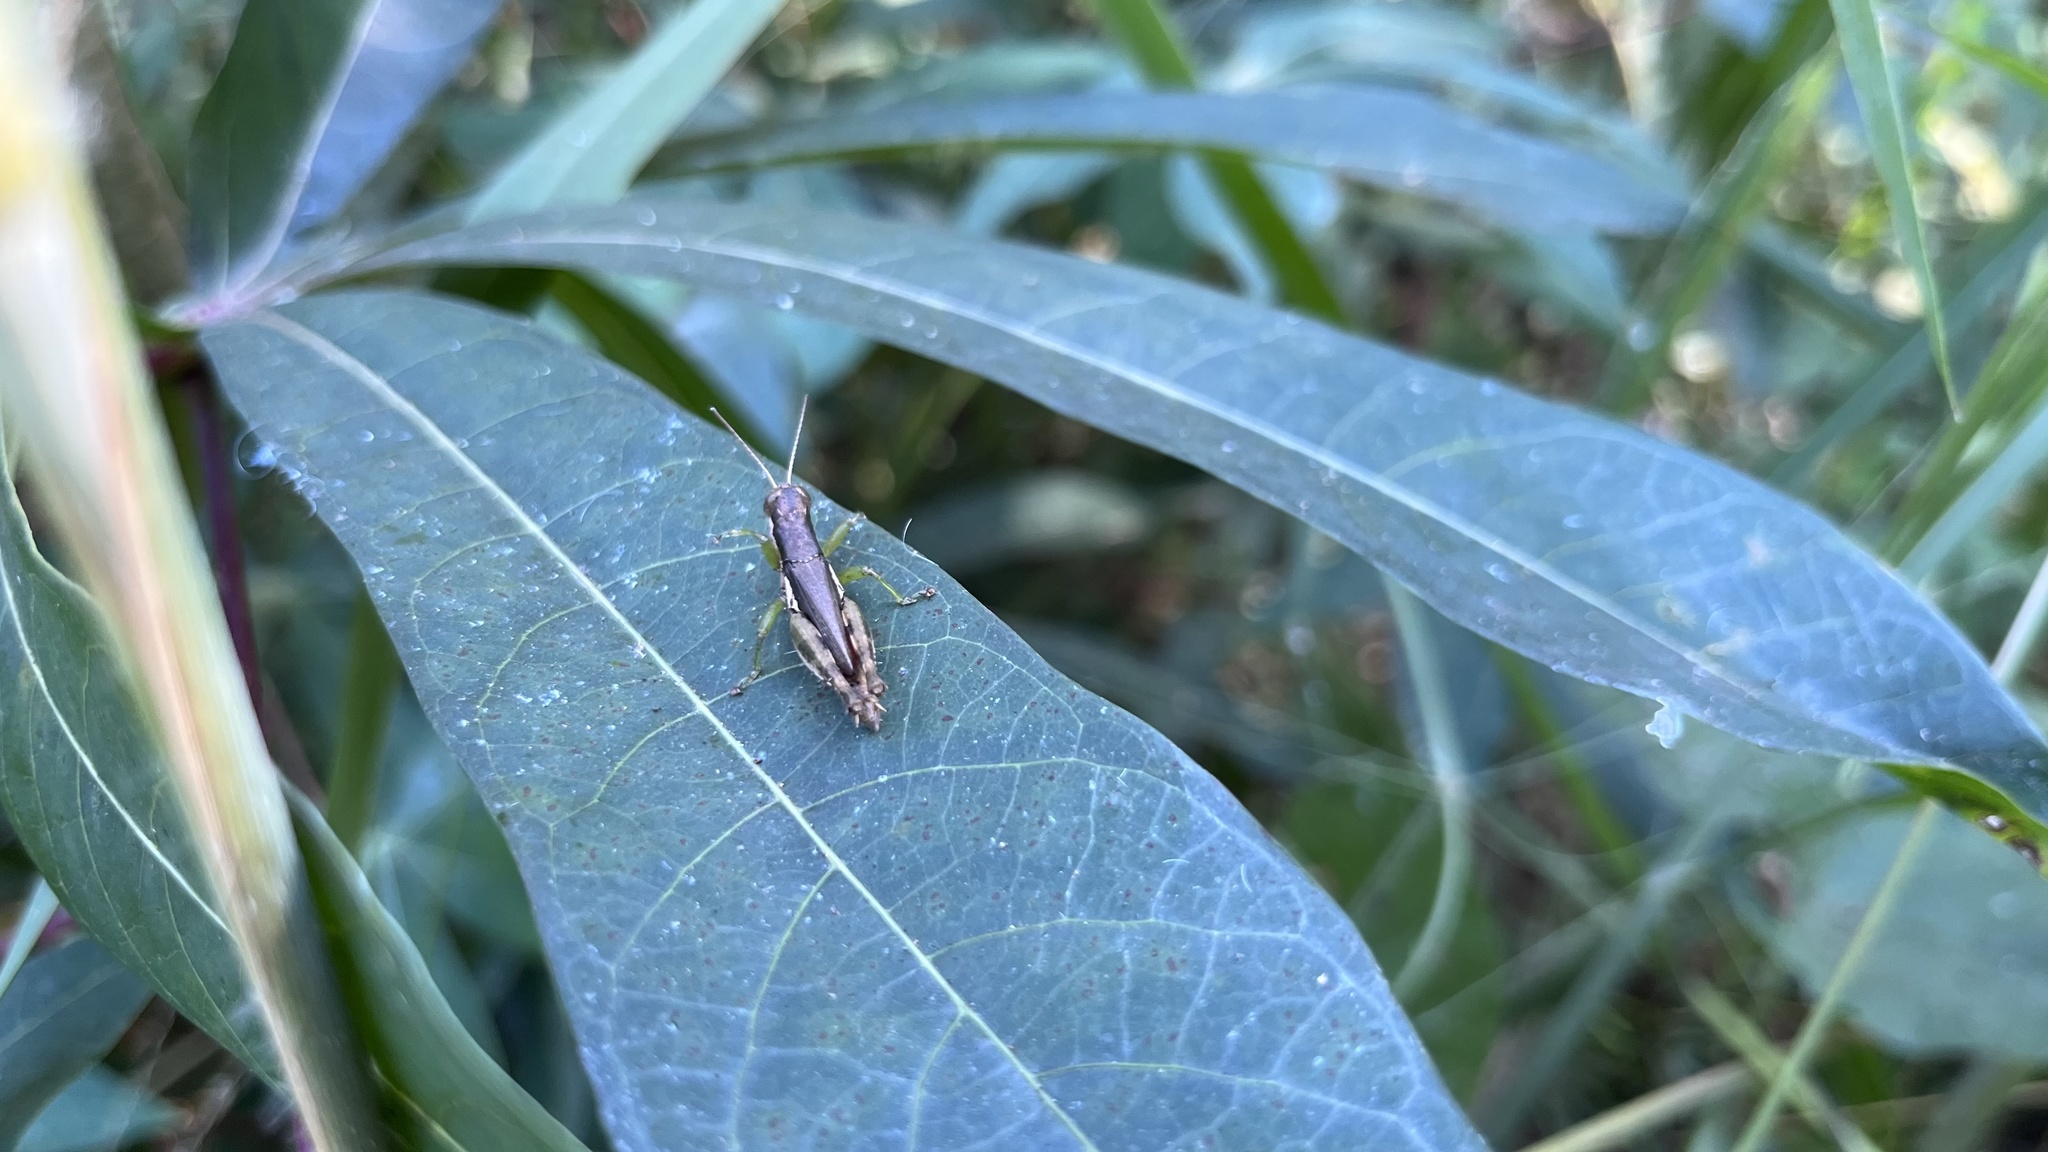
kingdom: Animalia
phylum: Arthropoda
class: Insecta
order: Orthoptera
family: Acrididae
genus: Pseudoxya
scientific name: Pseudoxya diminuta
